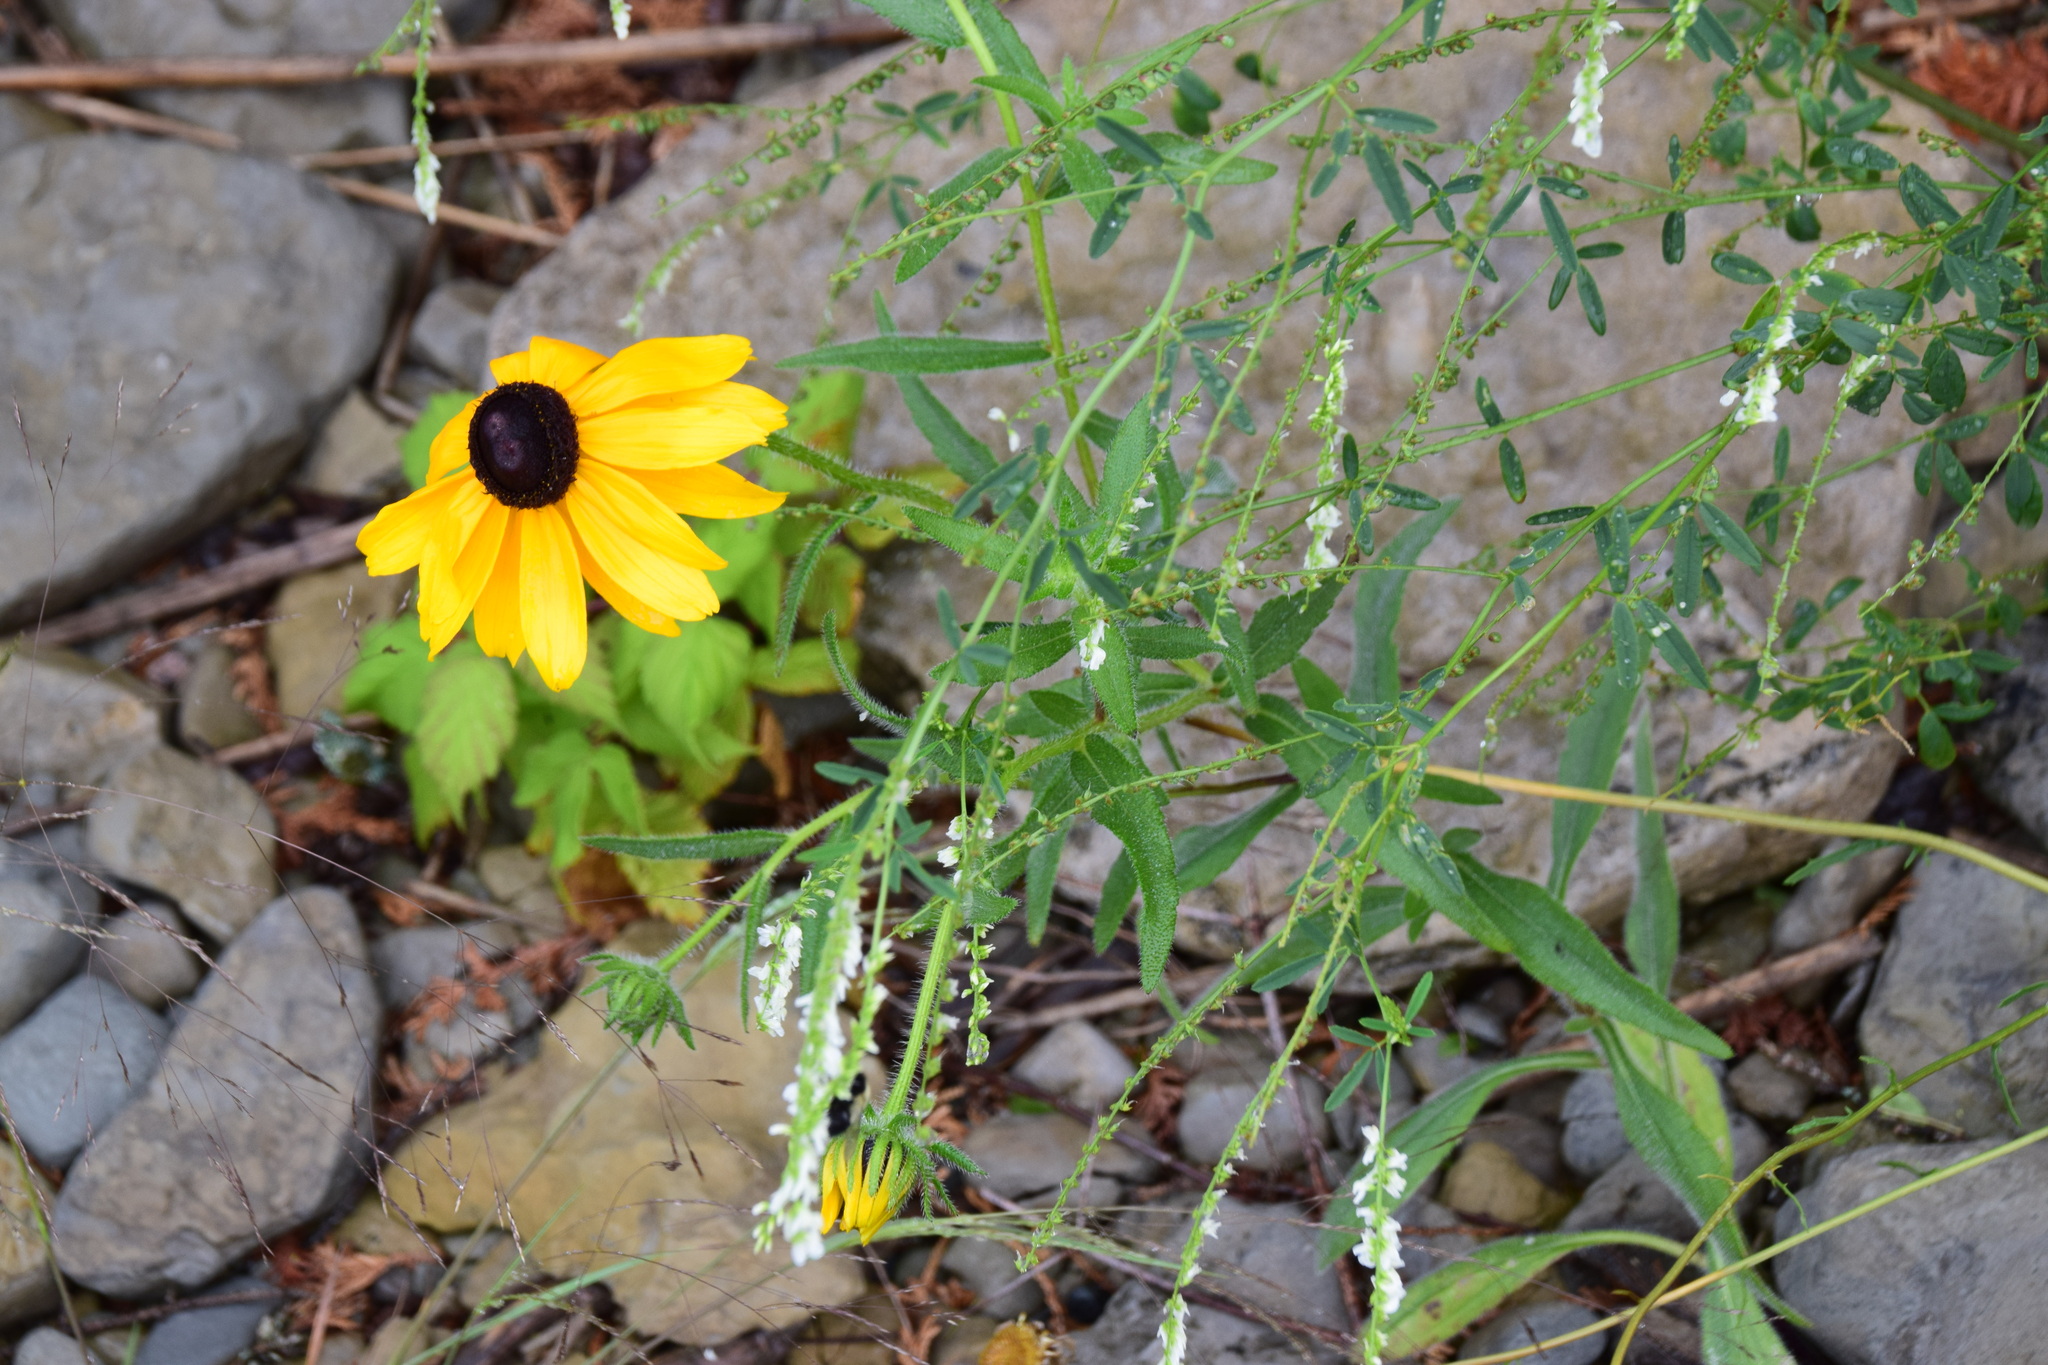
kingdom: Plantae
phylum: Tracheophyta
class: Magnoliopsida
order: Asterales
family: Asteraceae
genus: Rudbeckia
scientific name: Rudbeckia hirta
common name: Black-eyed-susan
